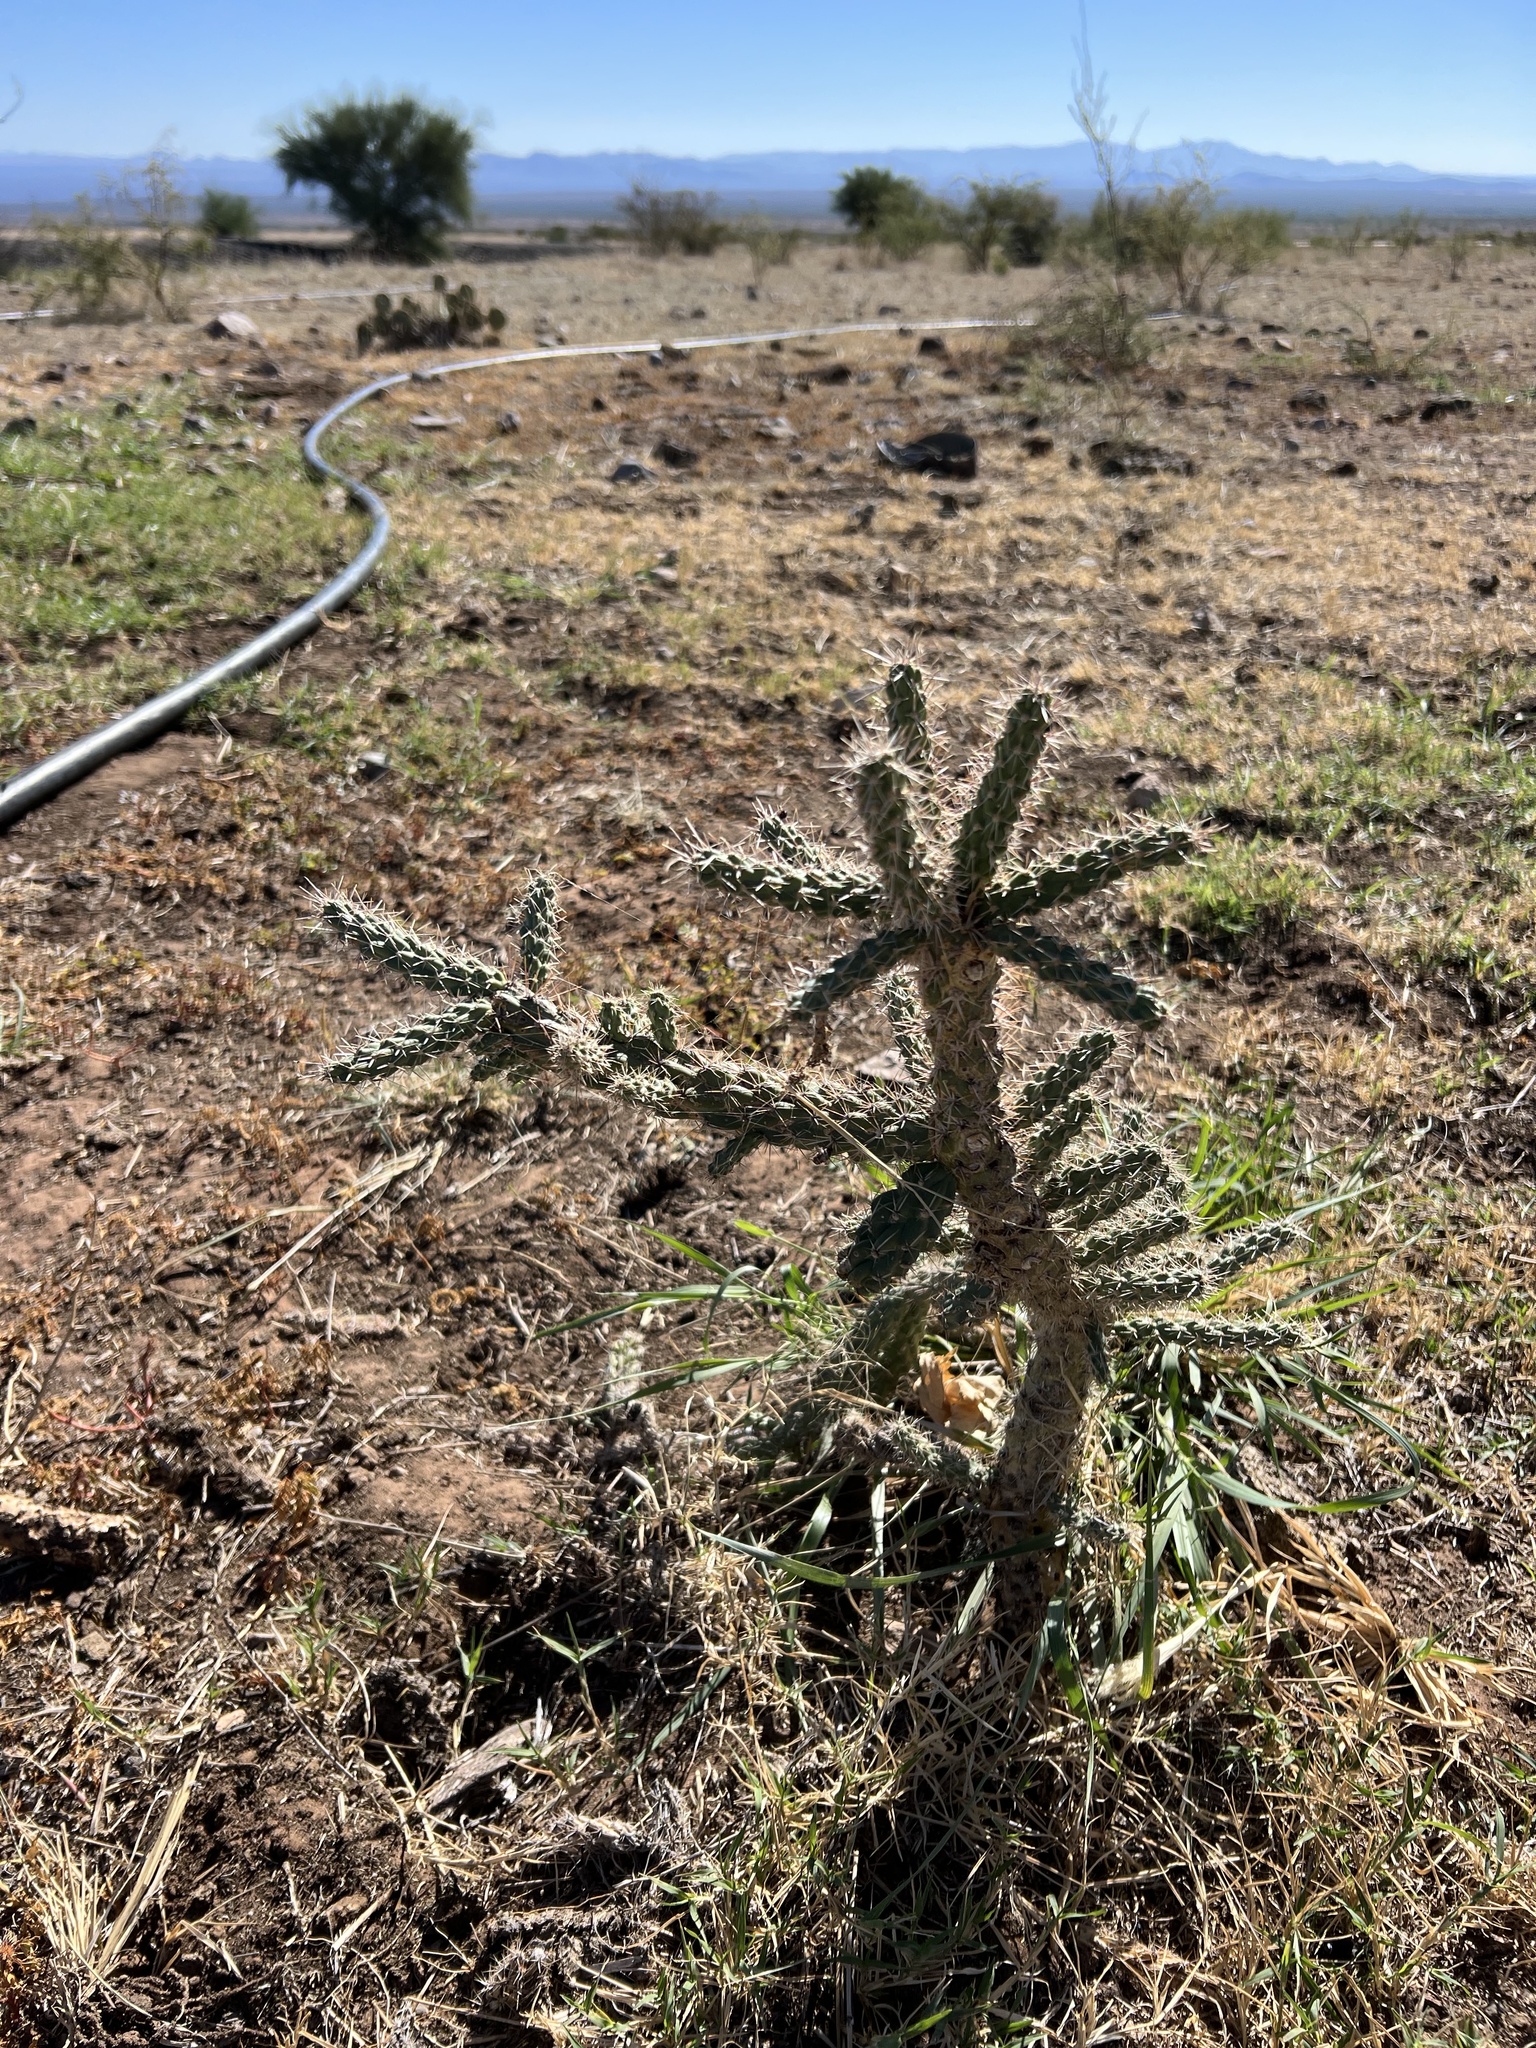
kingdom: Plantae
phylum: Tracheophyta
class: Magnoliopsida
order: Caryophyllales
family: Cactaceae
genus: Cylindropuntia
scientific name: Cylindropuntia imbricata
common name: Candelabrum cactus
